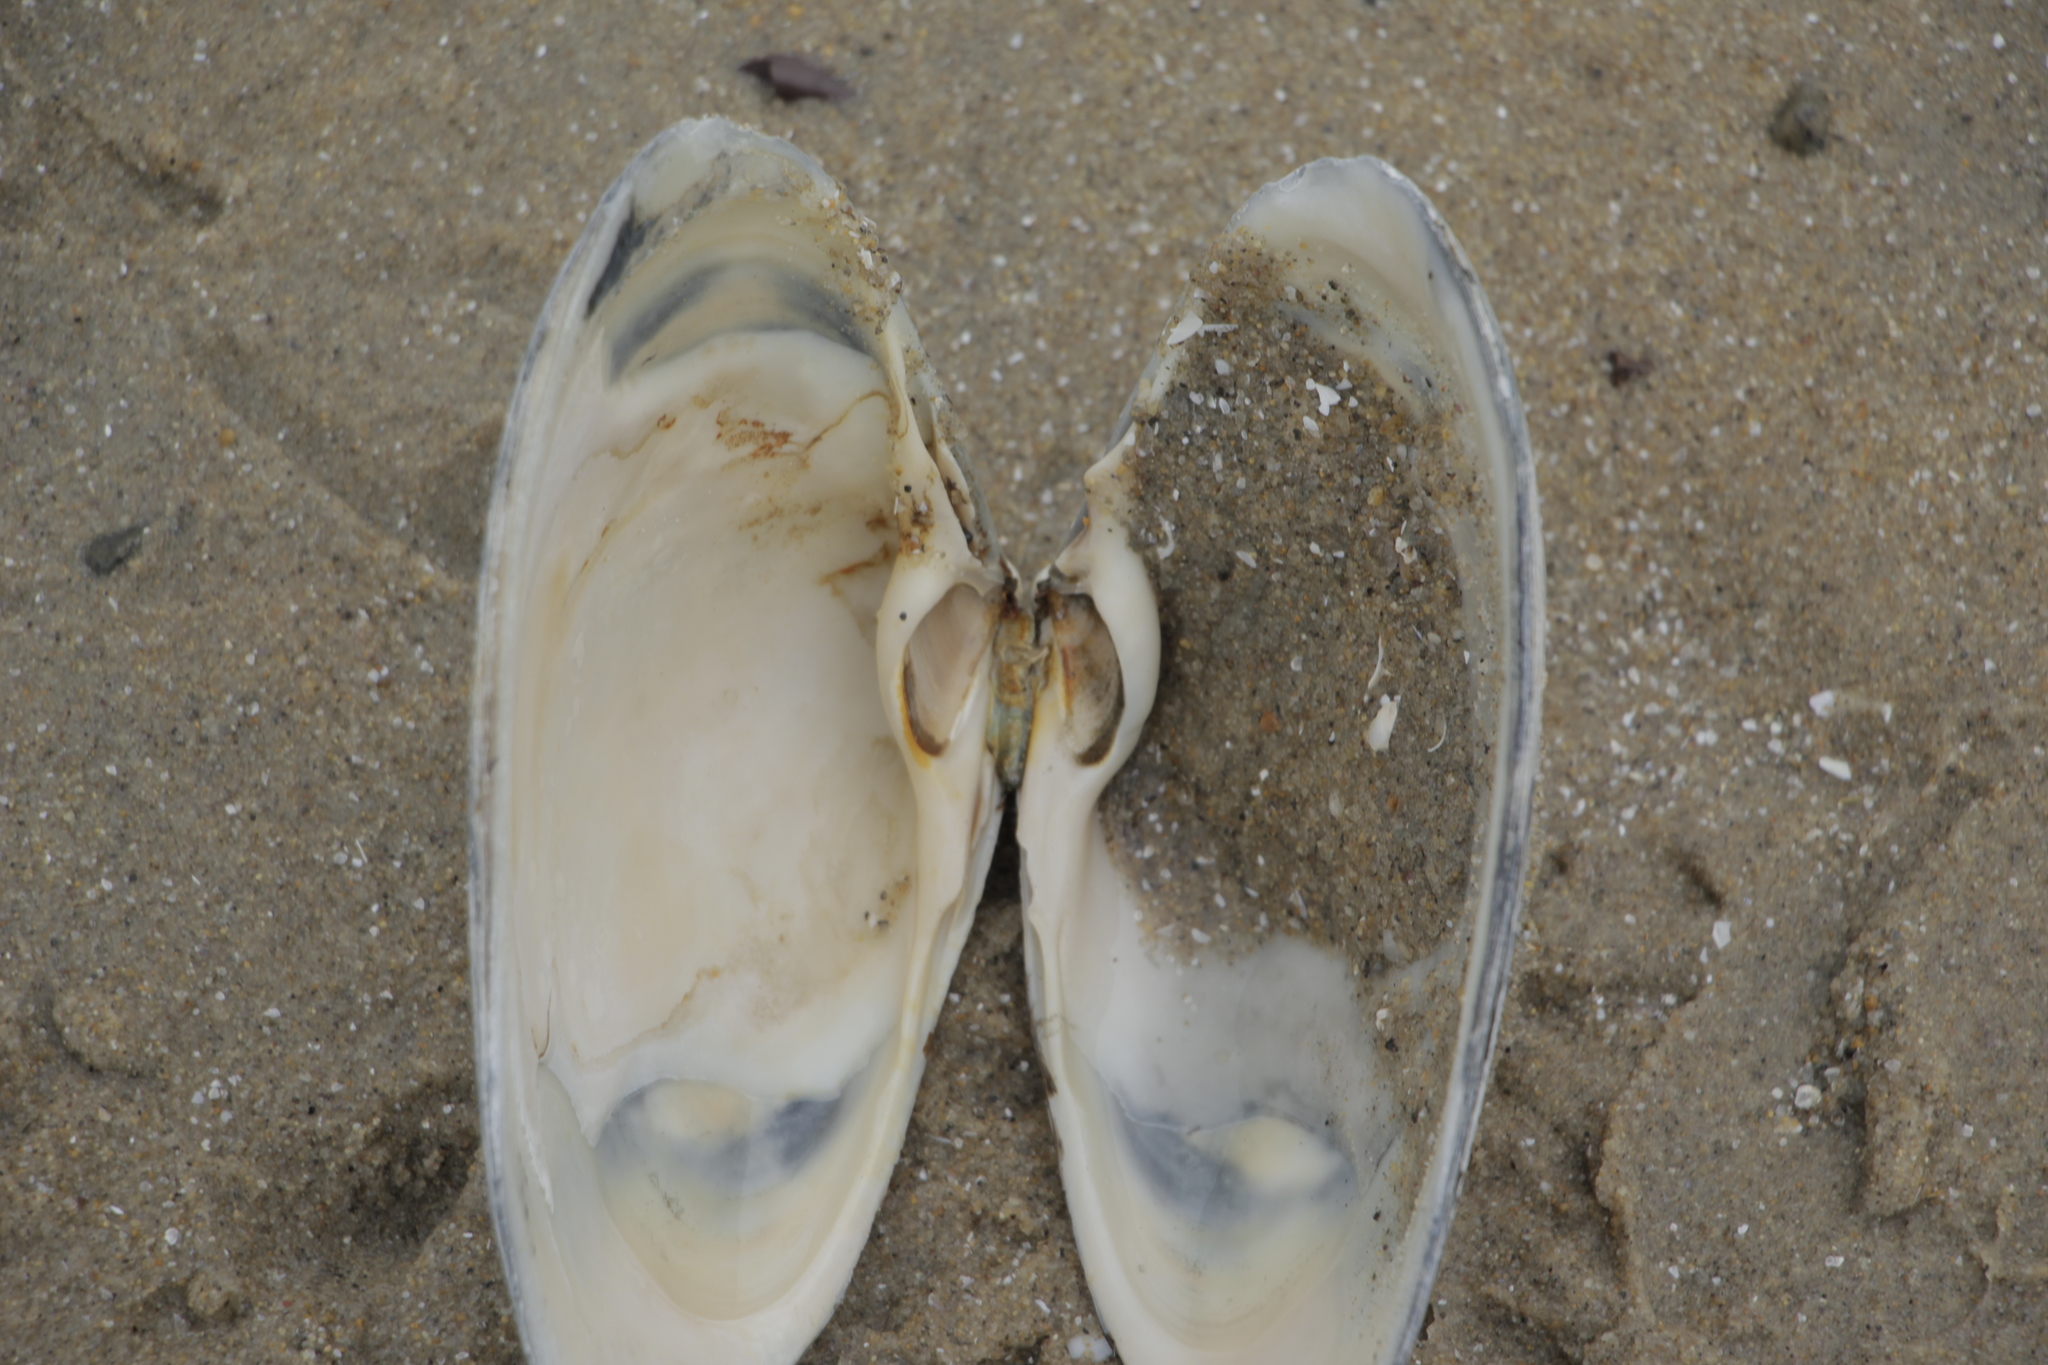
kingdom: Animalia
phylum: Mollusca
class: Bivalvia
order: Venerida
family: Mactridae
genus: Spisula
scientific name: Spisula solidissima
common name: Atlantic surf clam
